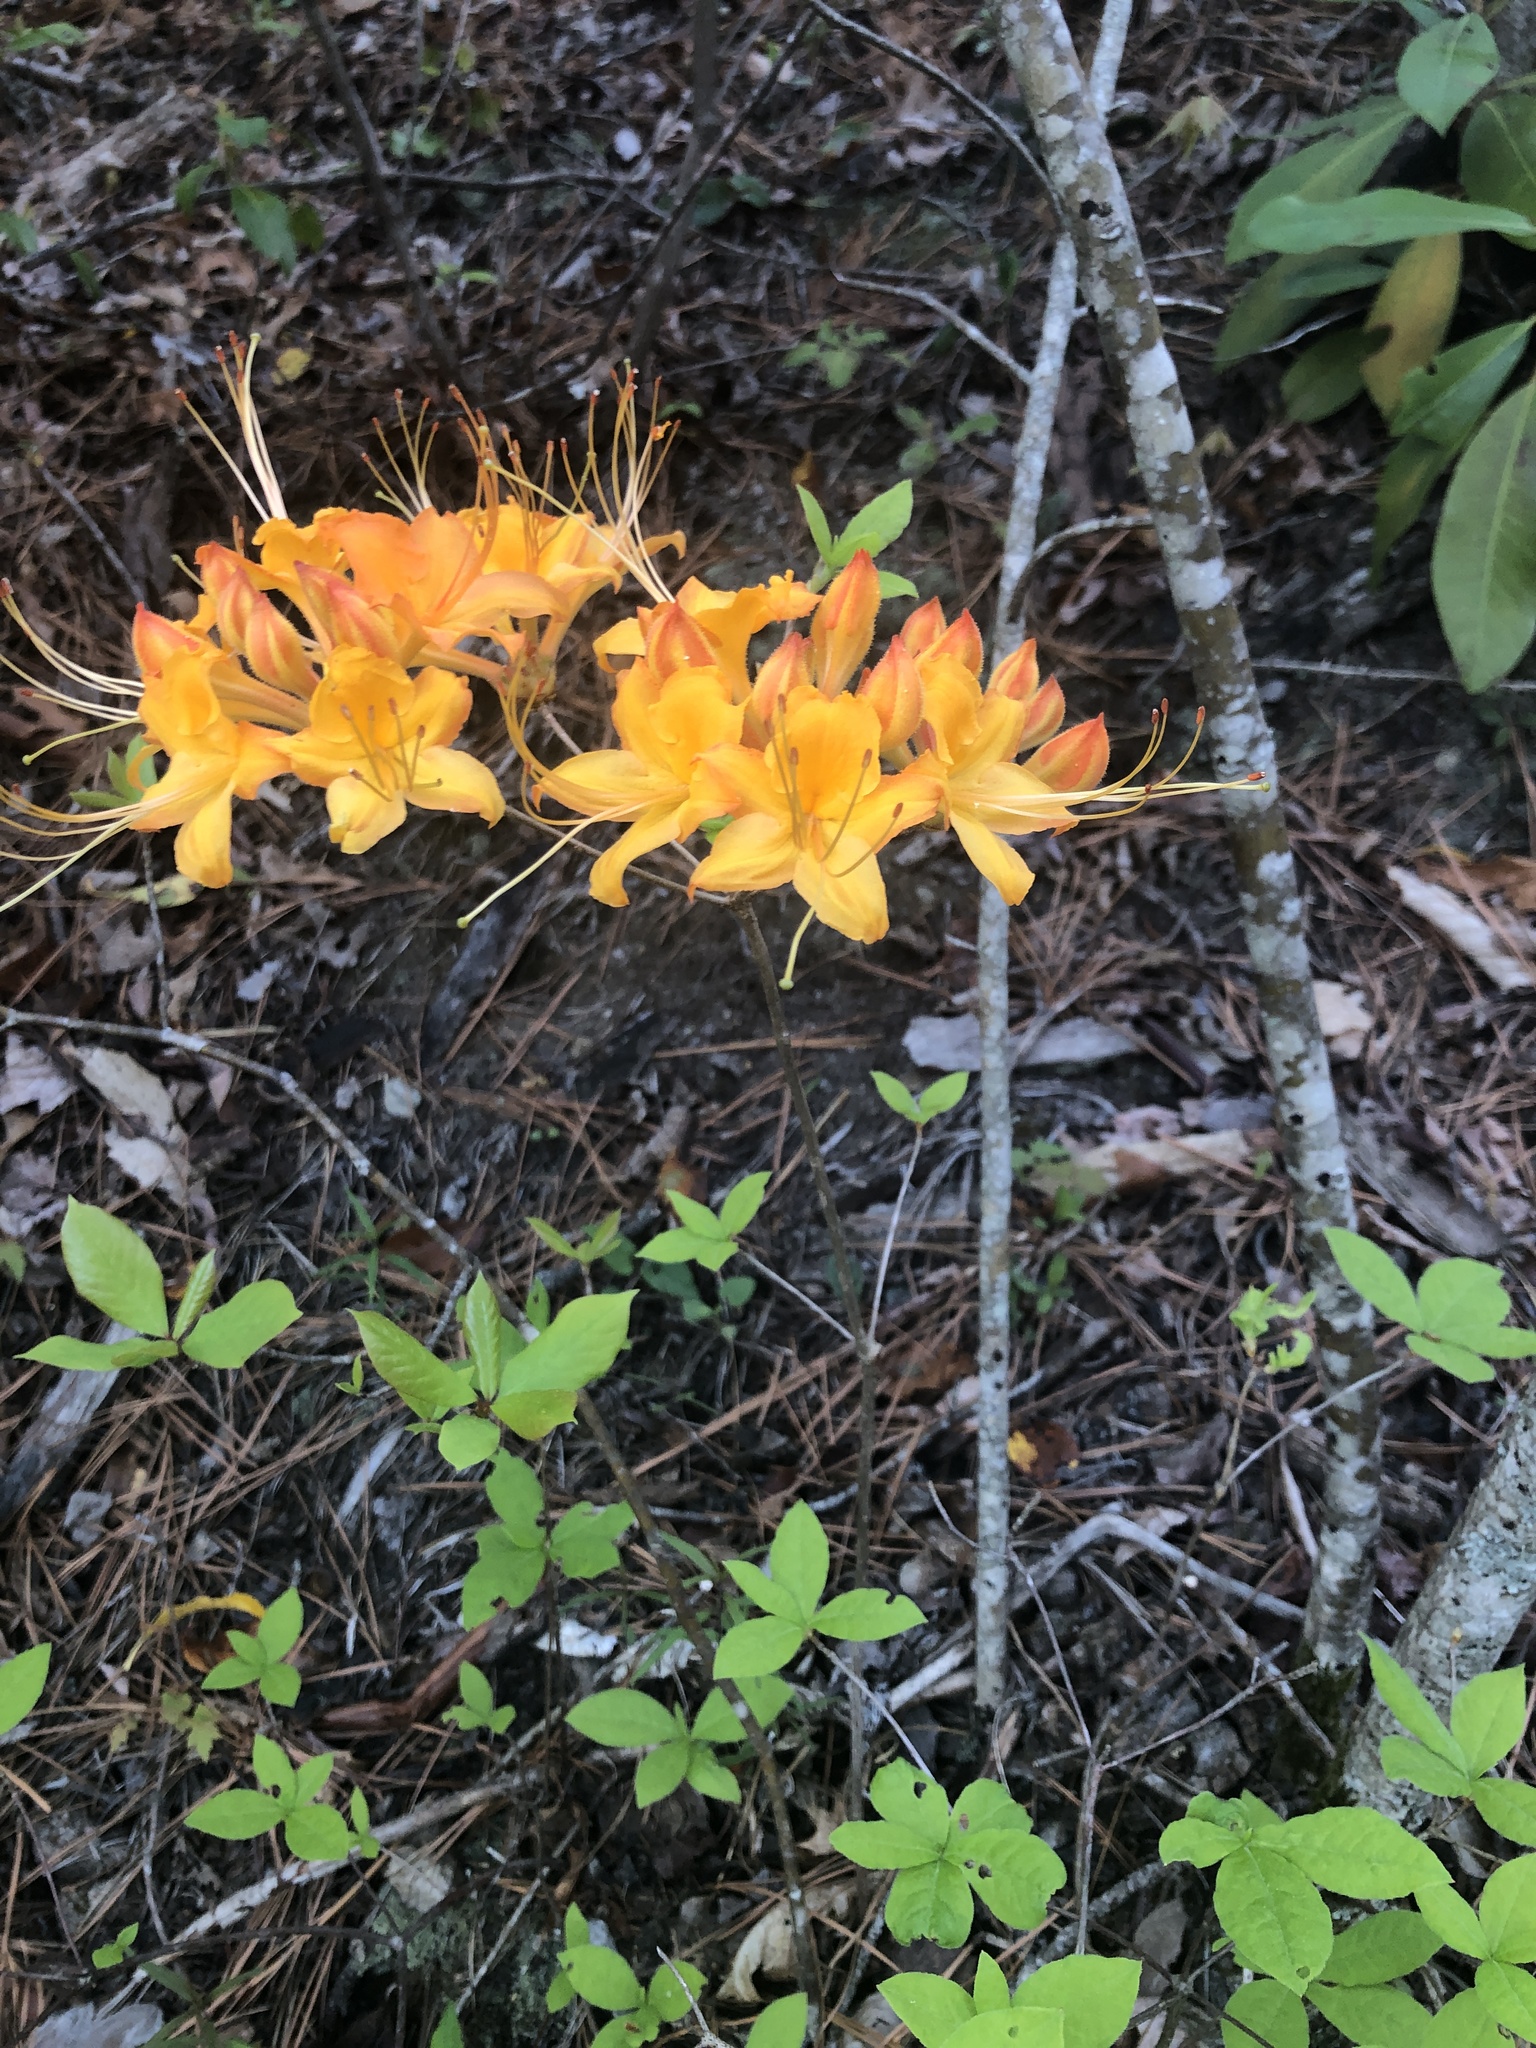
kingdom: Plantae
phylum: Tracheophyta
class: Magnoliopsida
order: Ericales
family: Ericaceae
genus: Rhododendron
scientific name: Rhododendron calendulaceum
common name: Flame azalea
